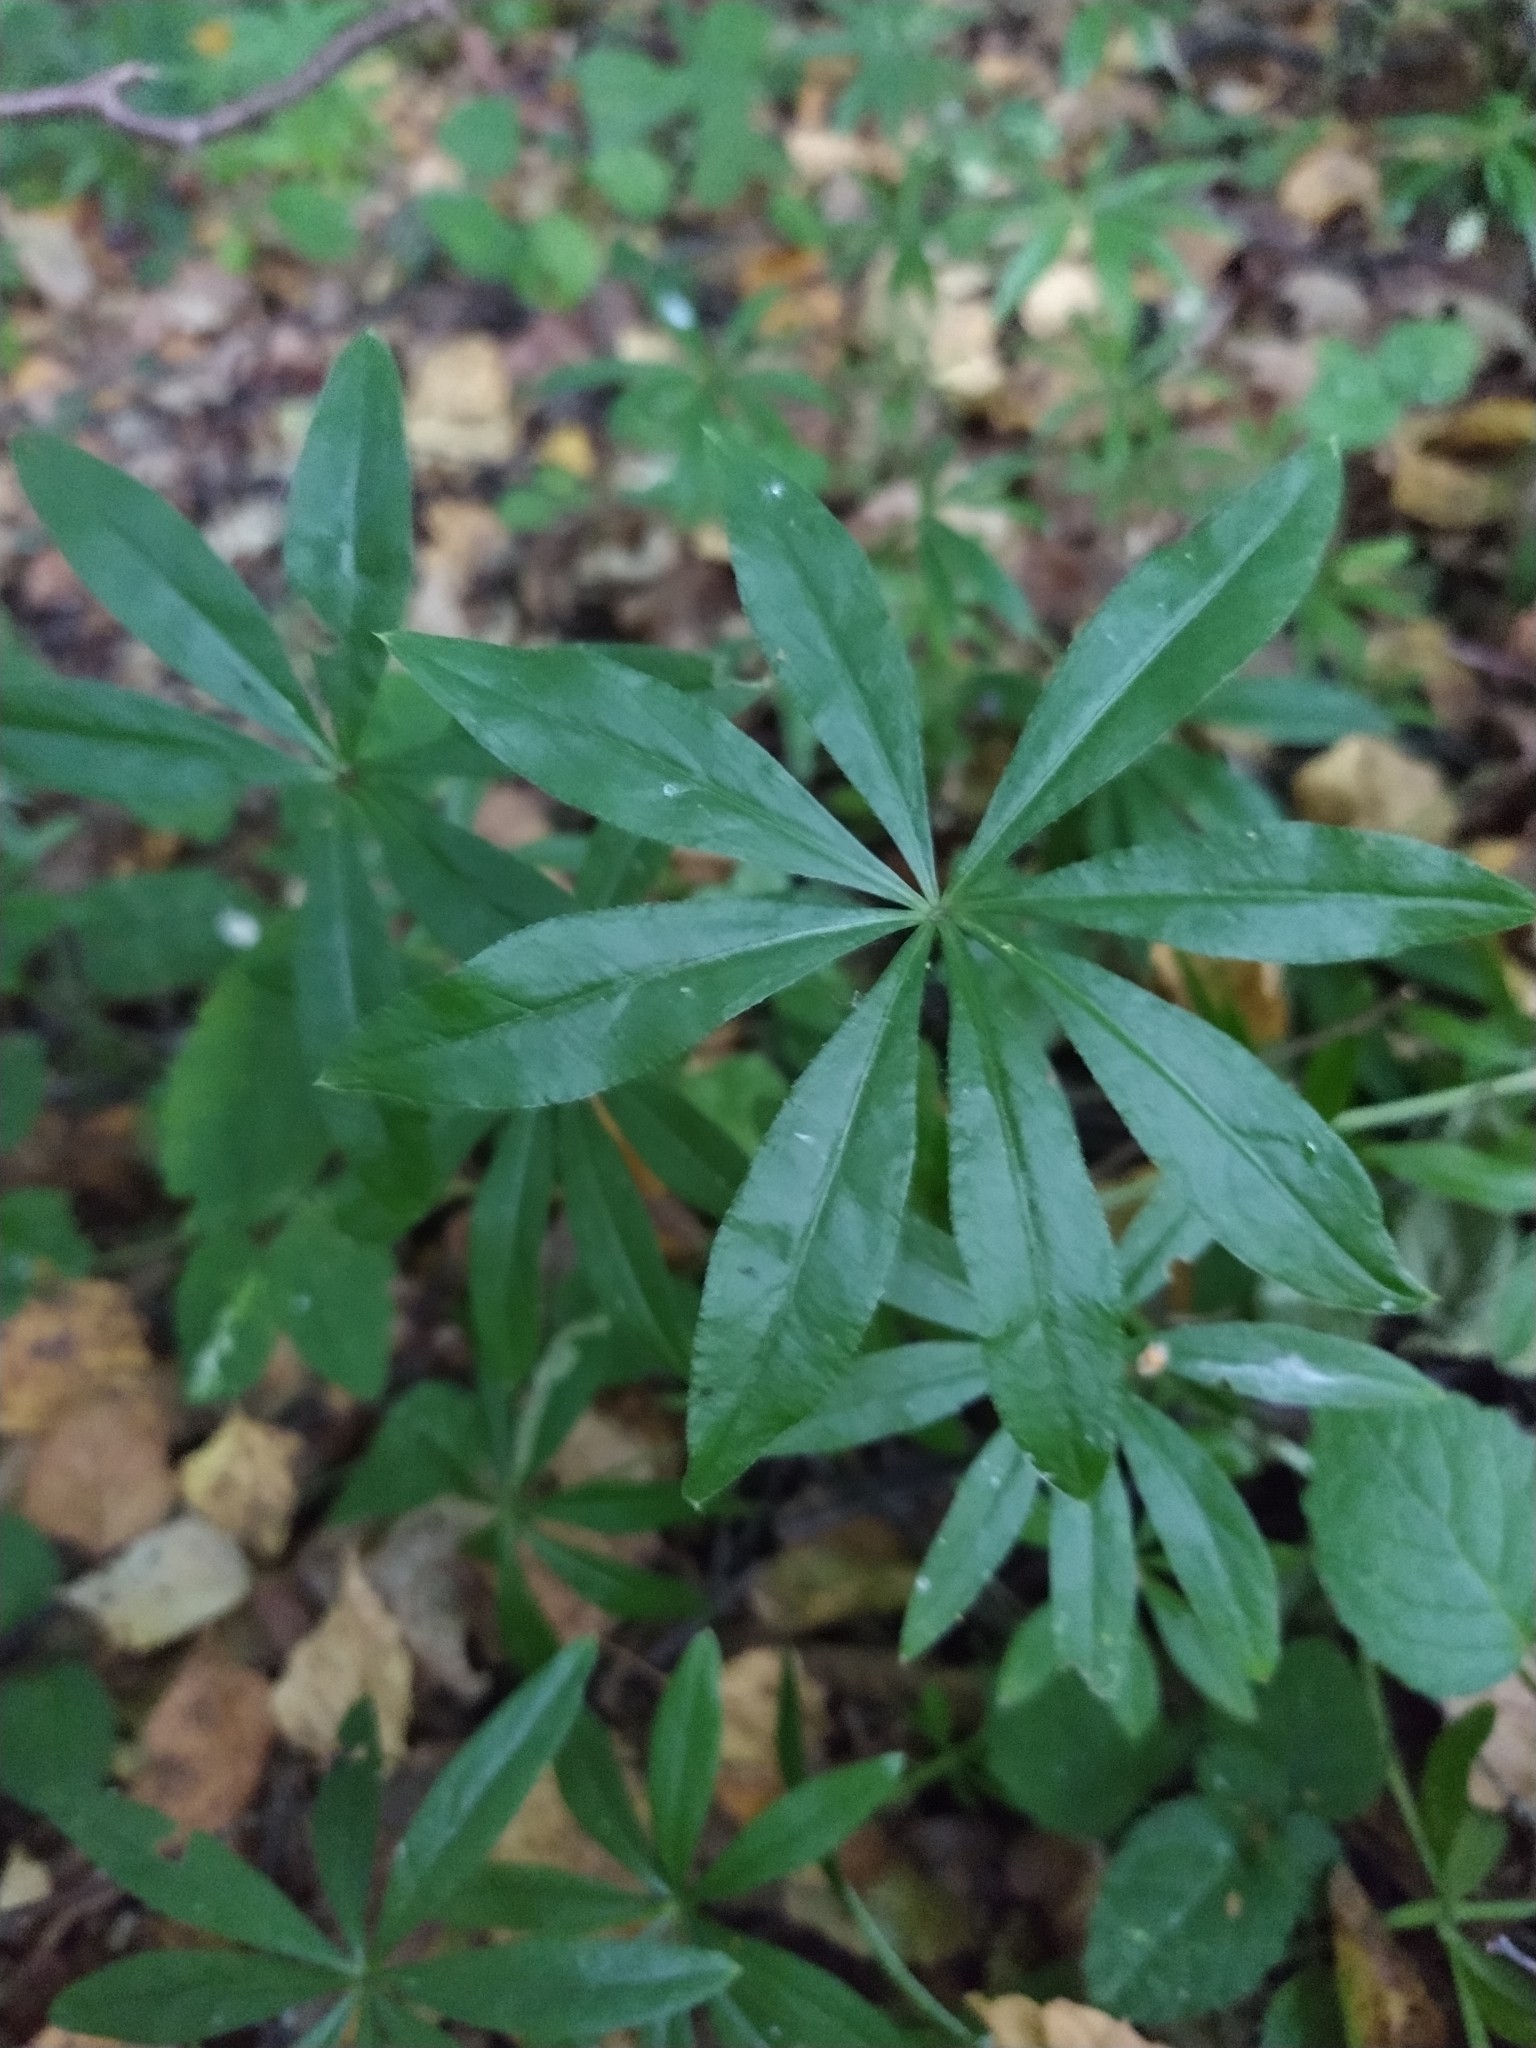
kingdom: Plantae
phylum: Tracheophyta
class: Magnoliopsida
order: Gentianales
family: Rubiaceae
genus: Galium
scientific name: Galium odoratum
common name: Sweet woodruff
